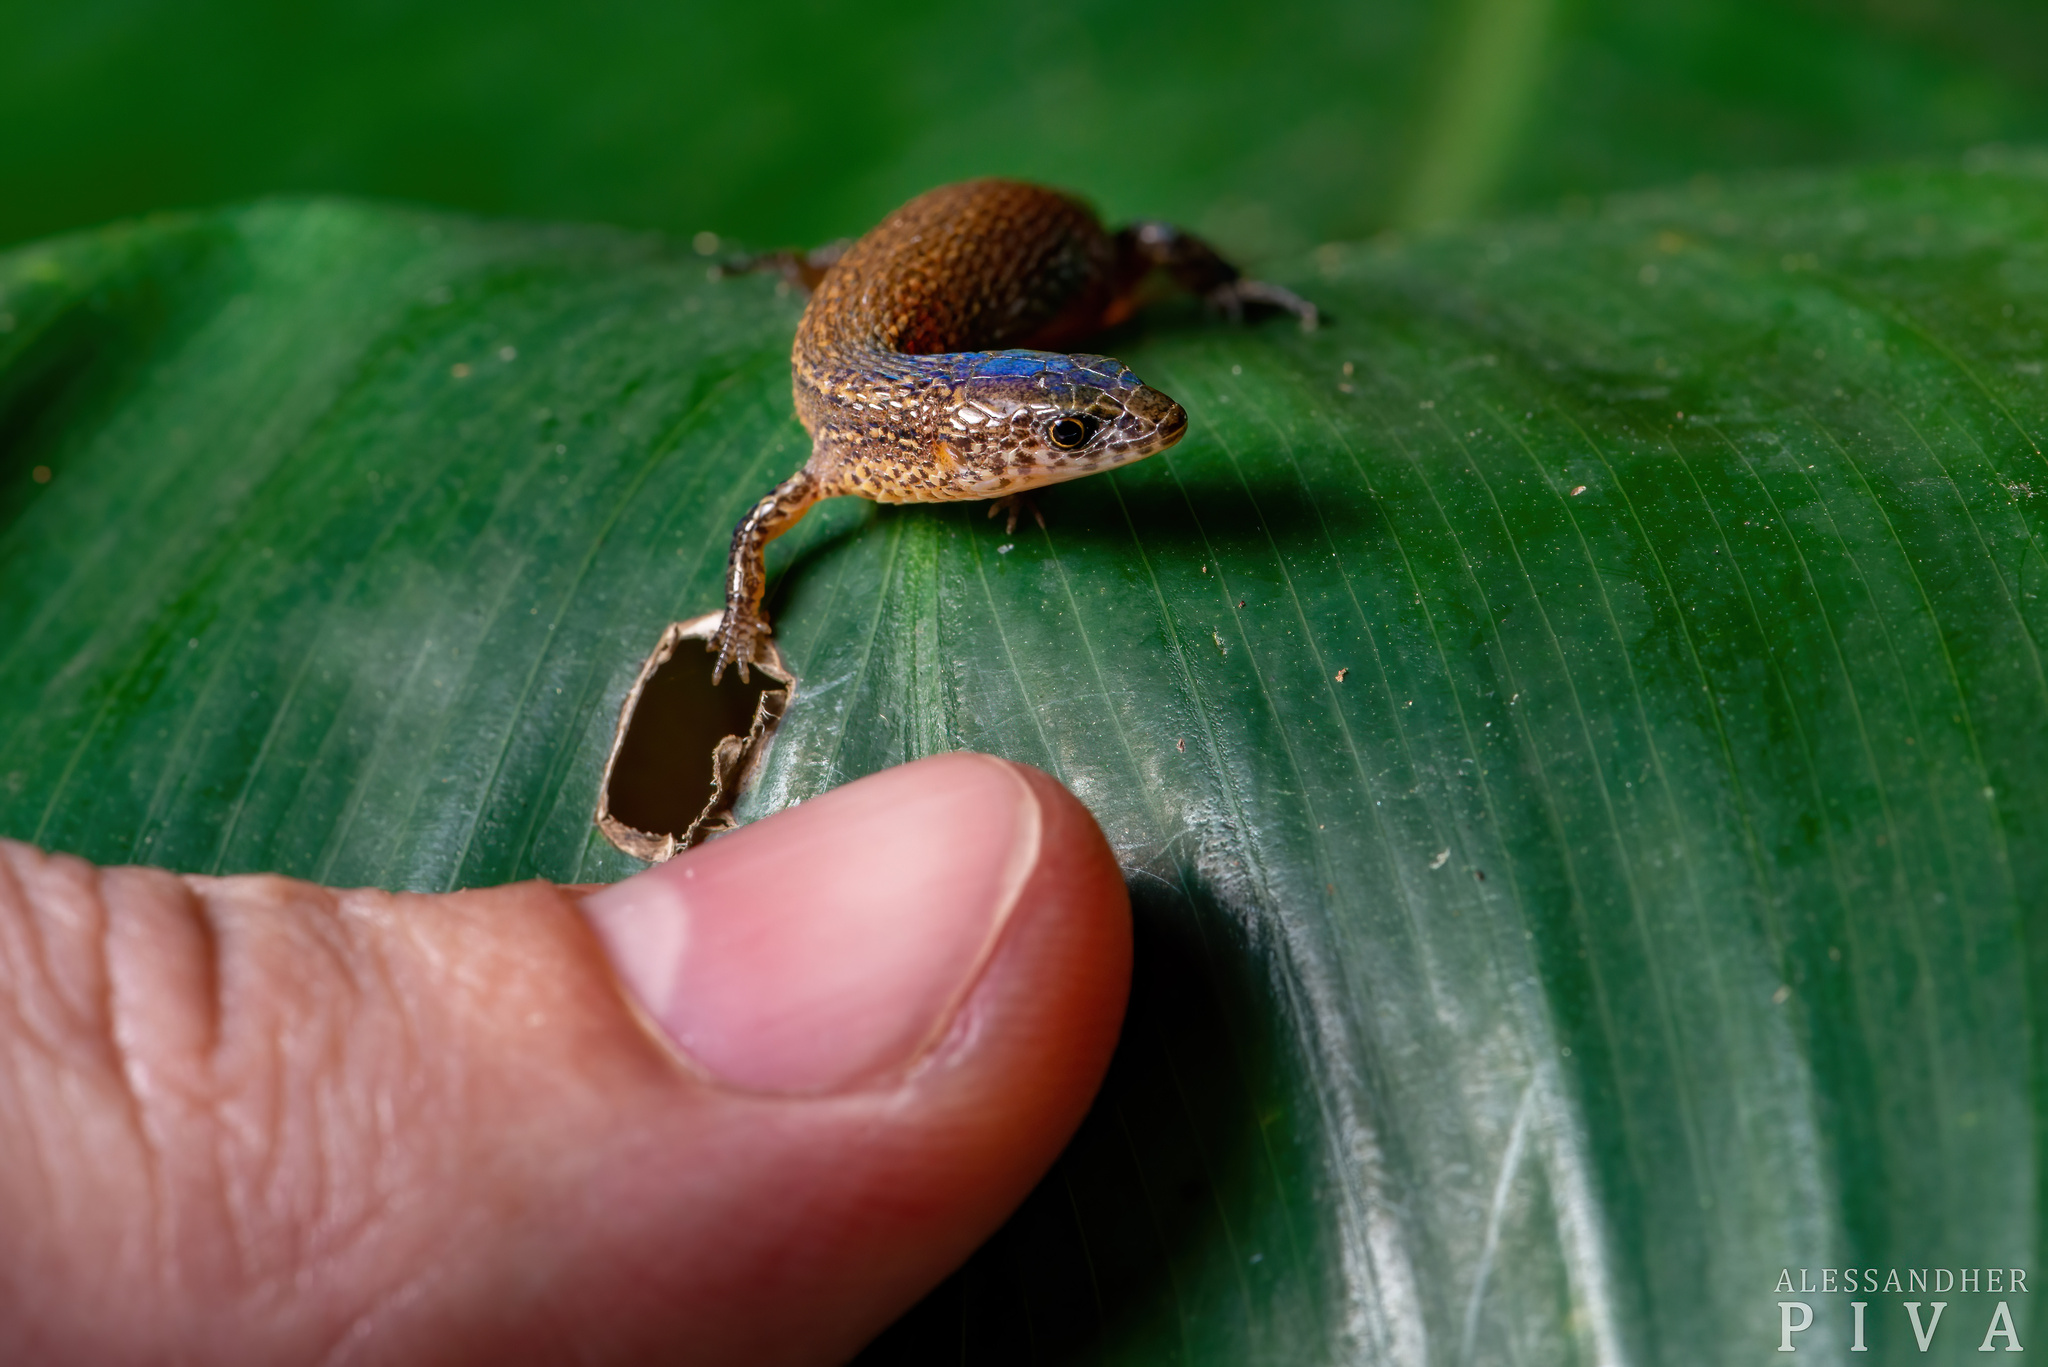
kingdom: Animalia
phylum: Chordata
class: Squamata
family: Gymnophthalmidae
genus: Ecpleopus
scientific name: Ecpleopus gaudichaudii
